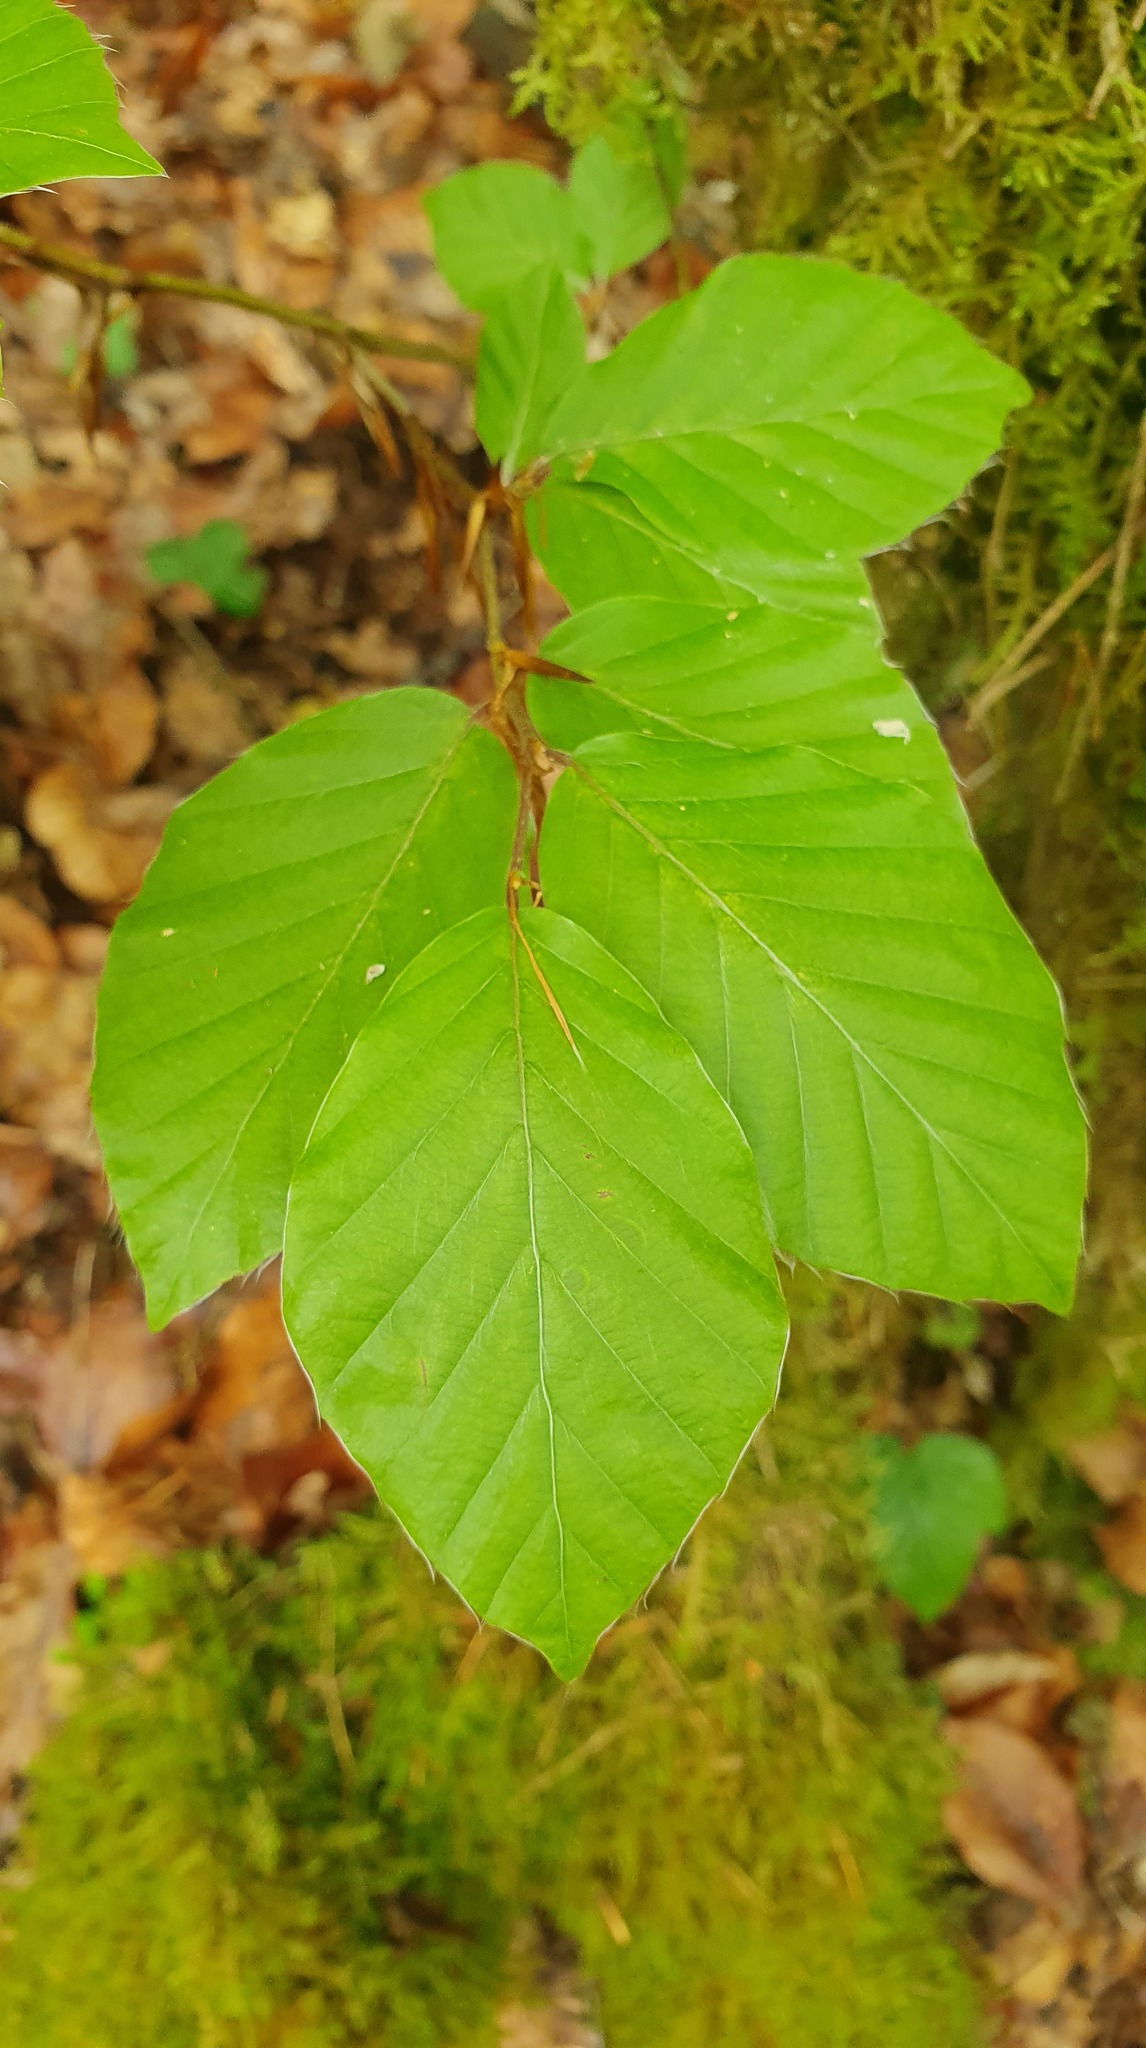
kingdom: Plantae
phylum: Tracheophyta
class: Magnoliopsida
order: Fagales
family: Fagaceae
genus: Fagus
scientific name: Fagus sylvatica
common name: Beech
